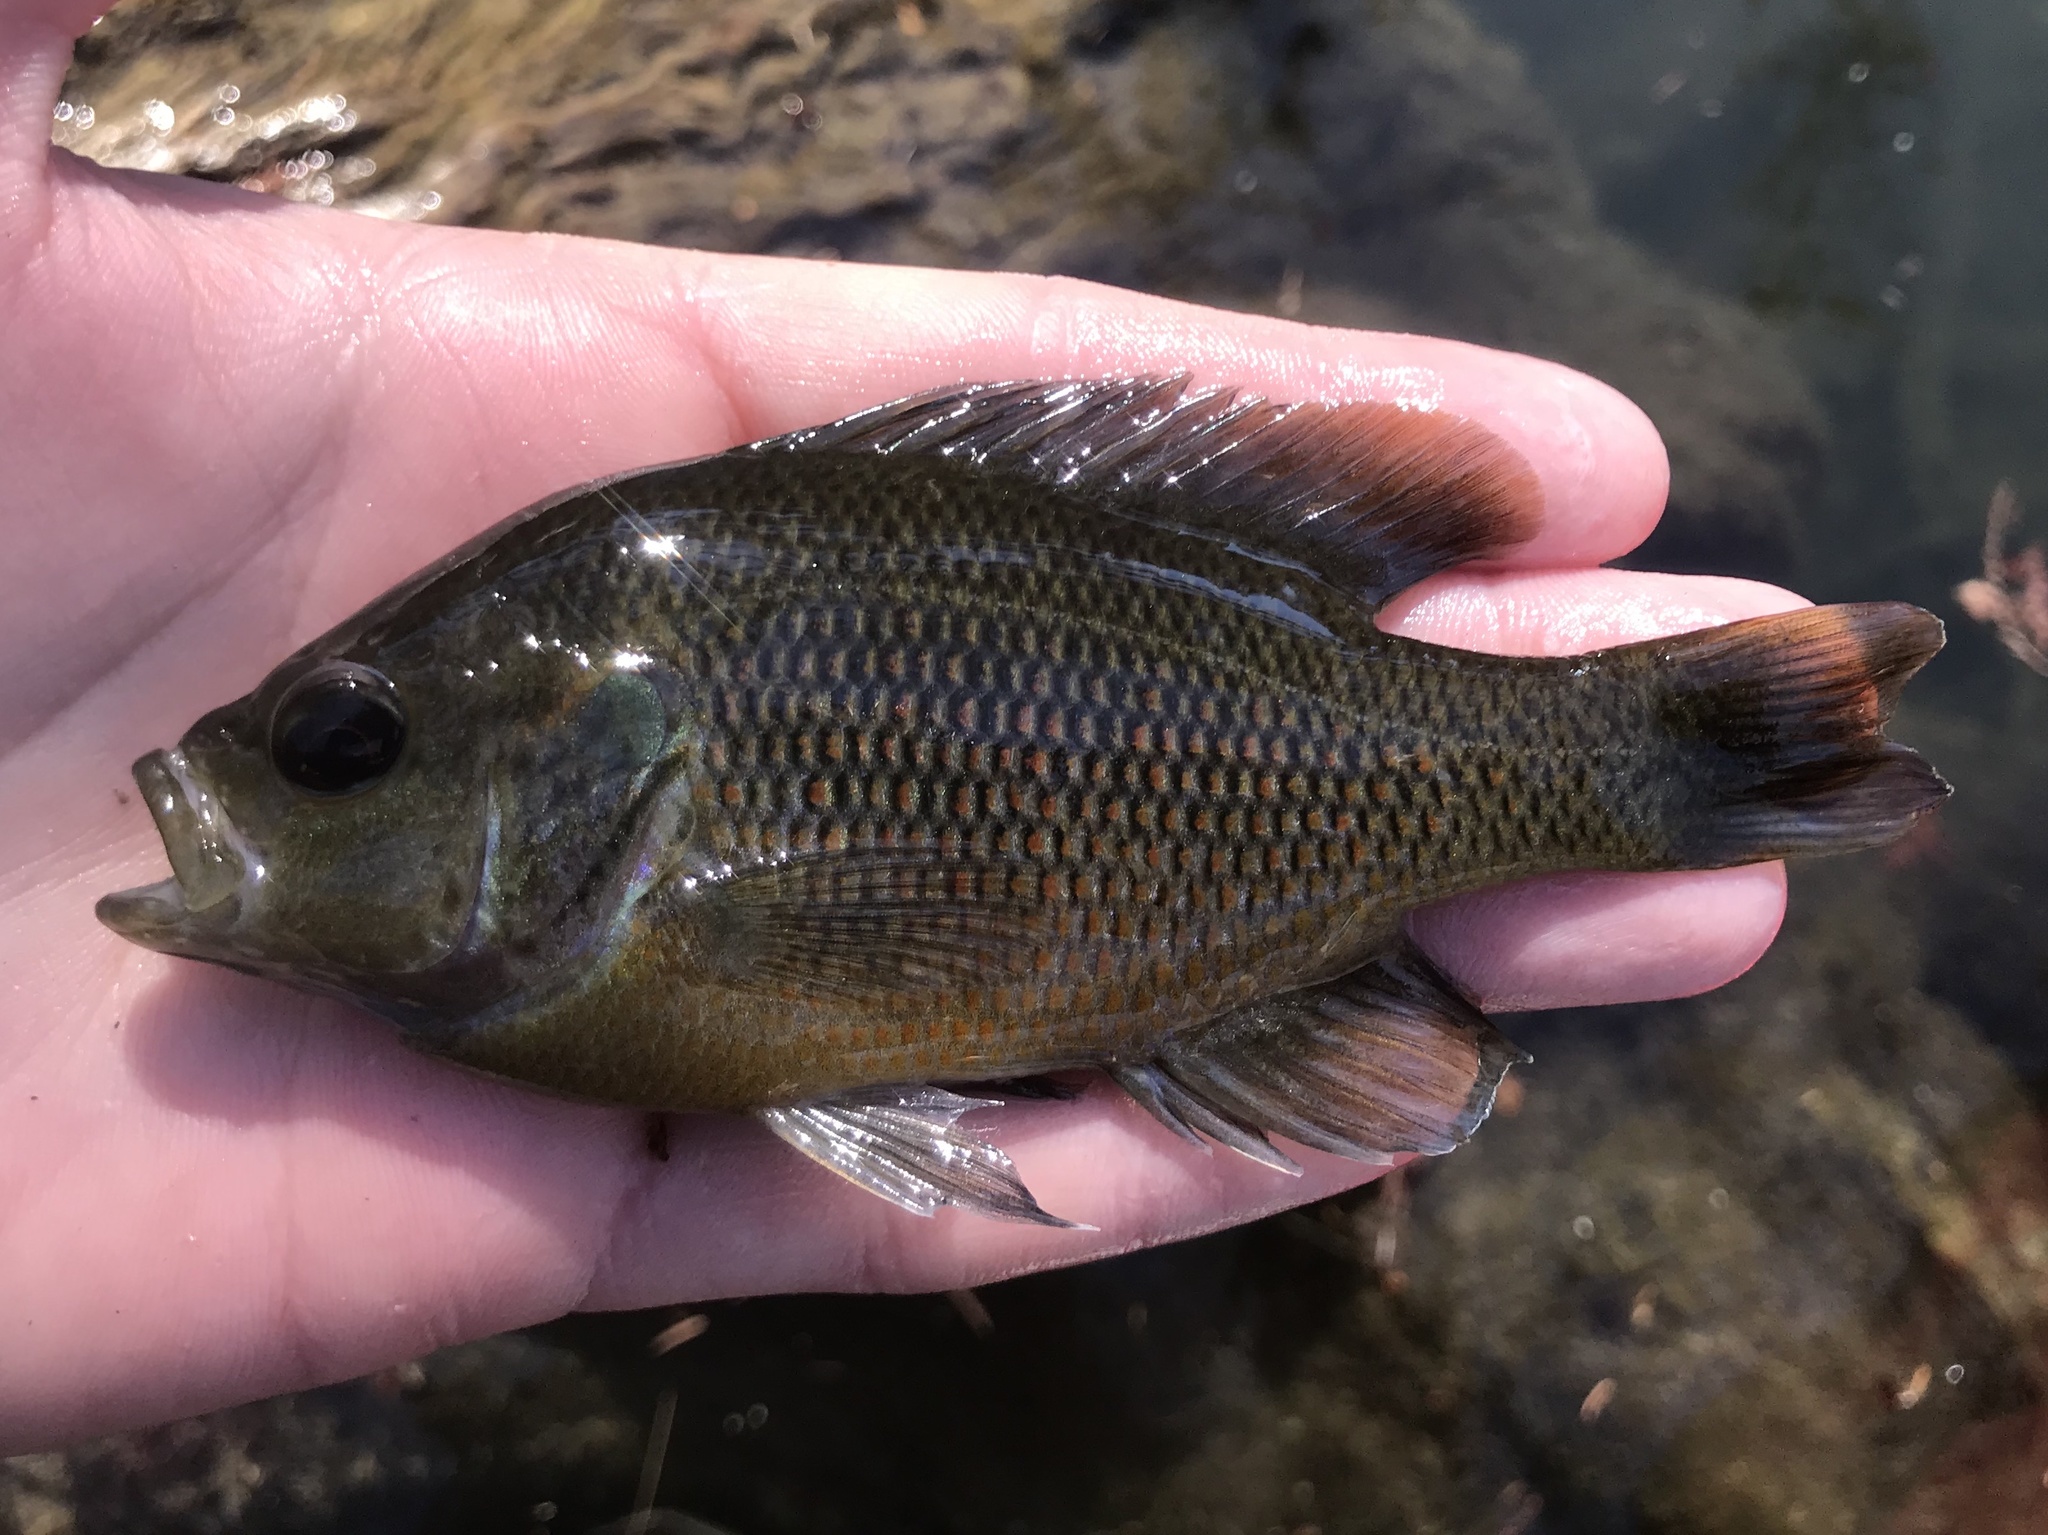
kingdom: Animalia
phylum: Chordata
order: Perciformes
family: Centrarchidae
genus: Lepomis
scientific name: Lepomis miniatus
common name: Redspotted sunfish
